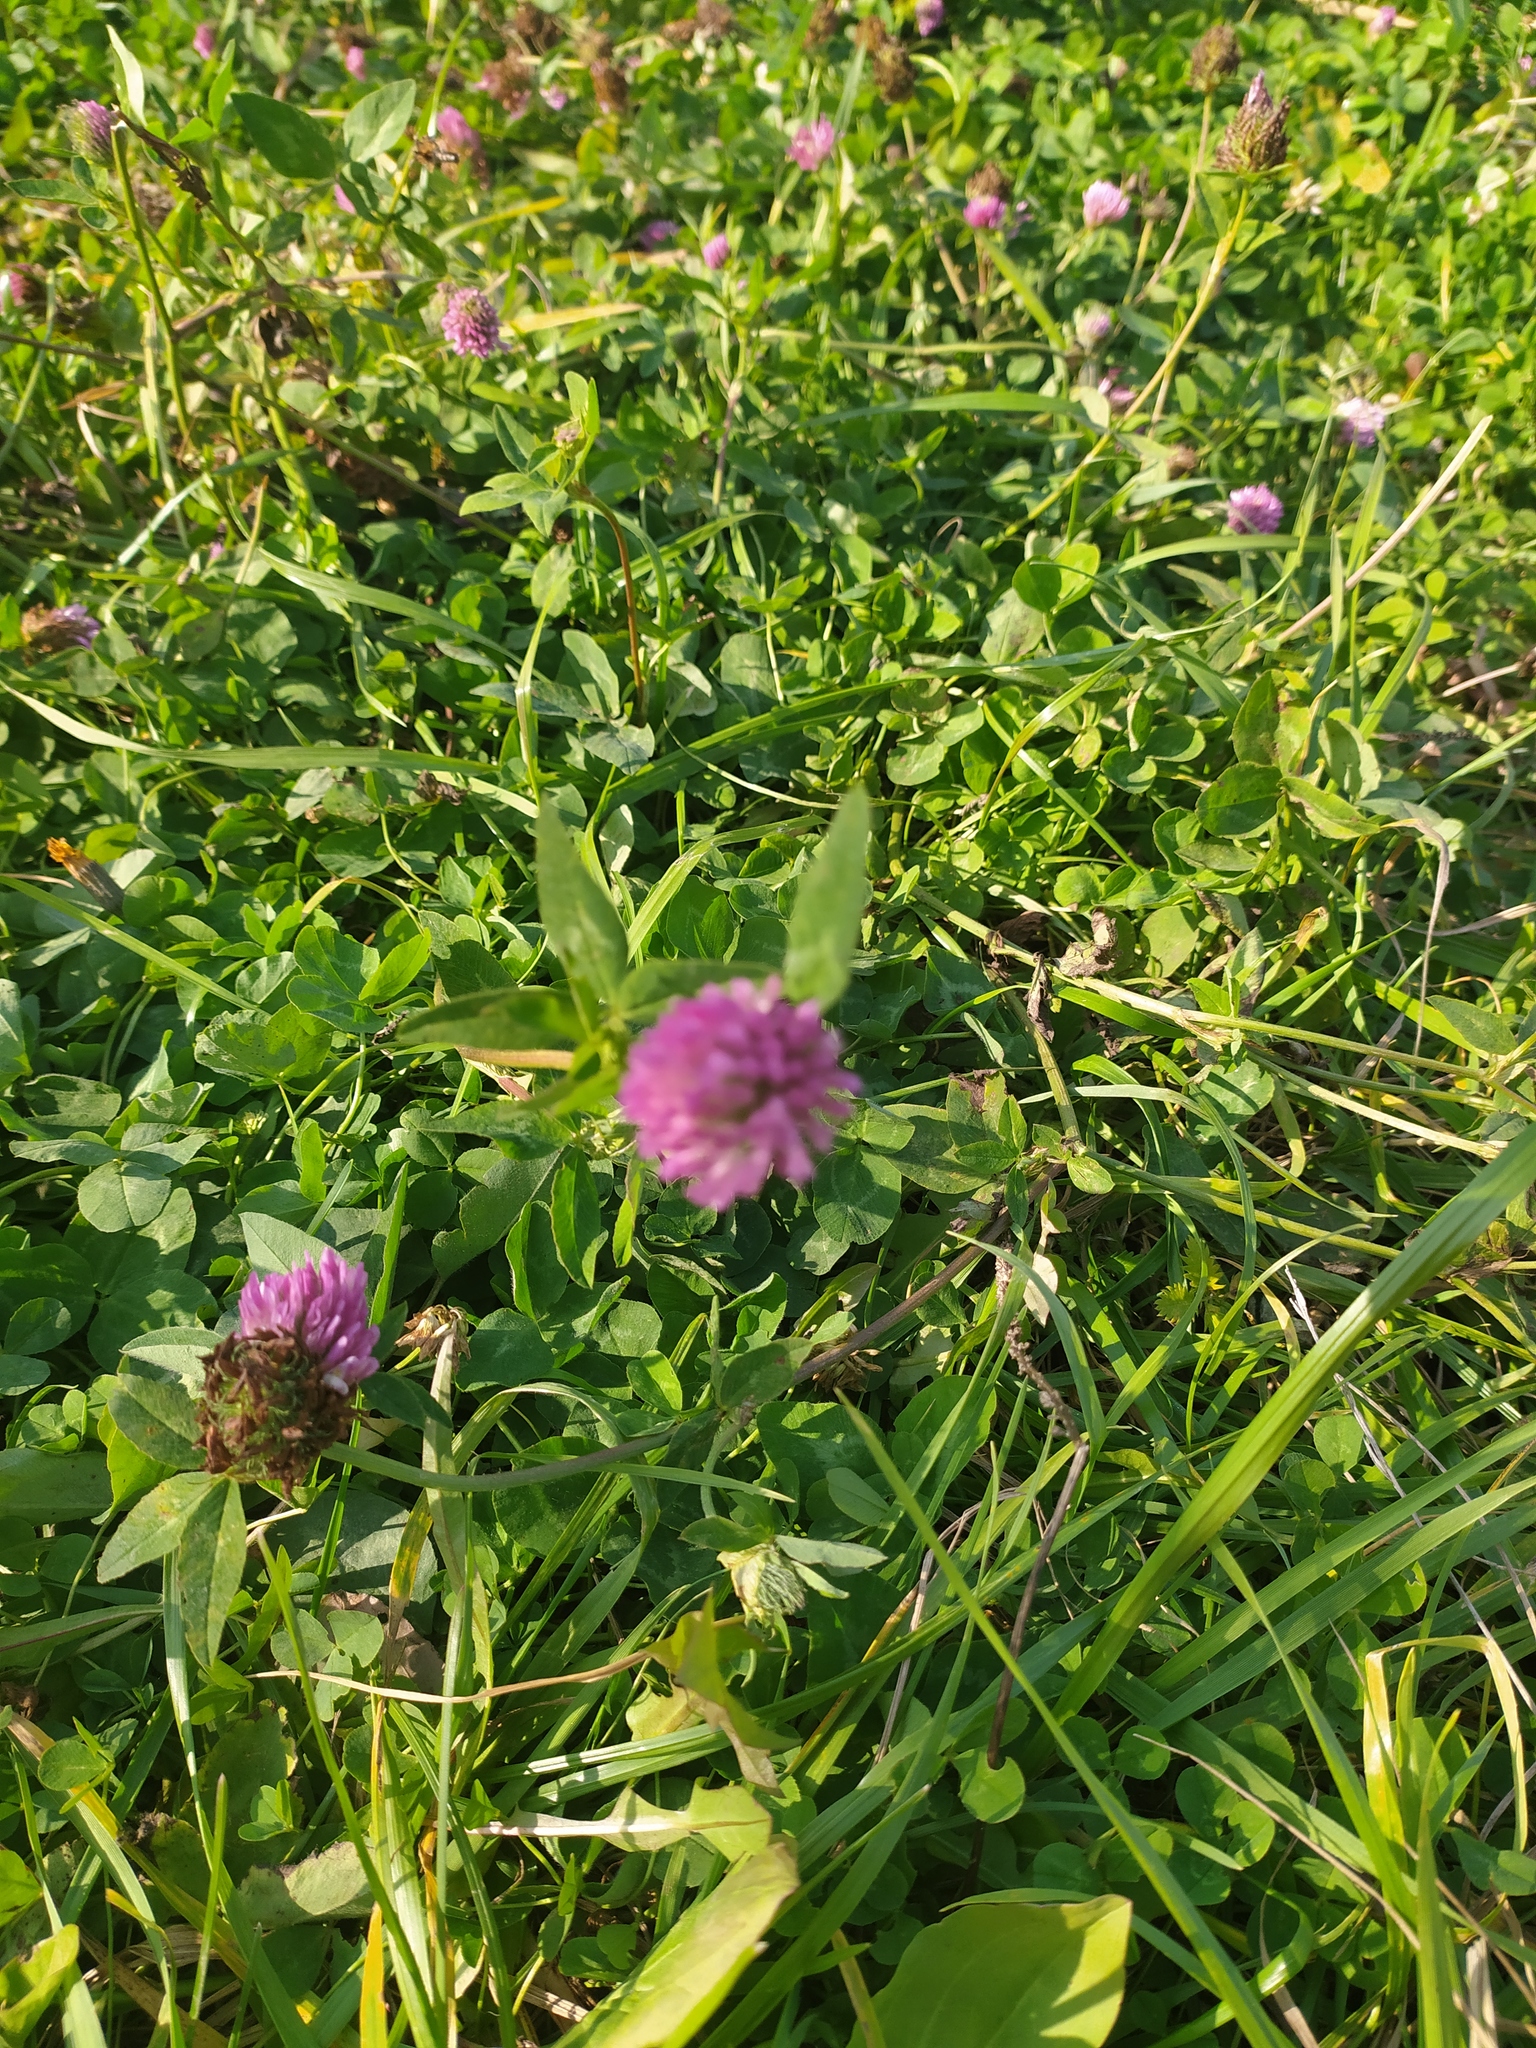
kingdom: Plantae
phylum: Tracheophyta
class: Magnoliopsida
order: Fabales
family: Fabaceae
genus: Trifolium
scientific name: Trifolium pratense
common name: Red clover
